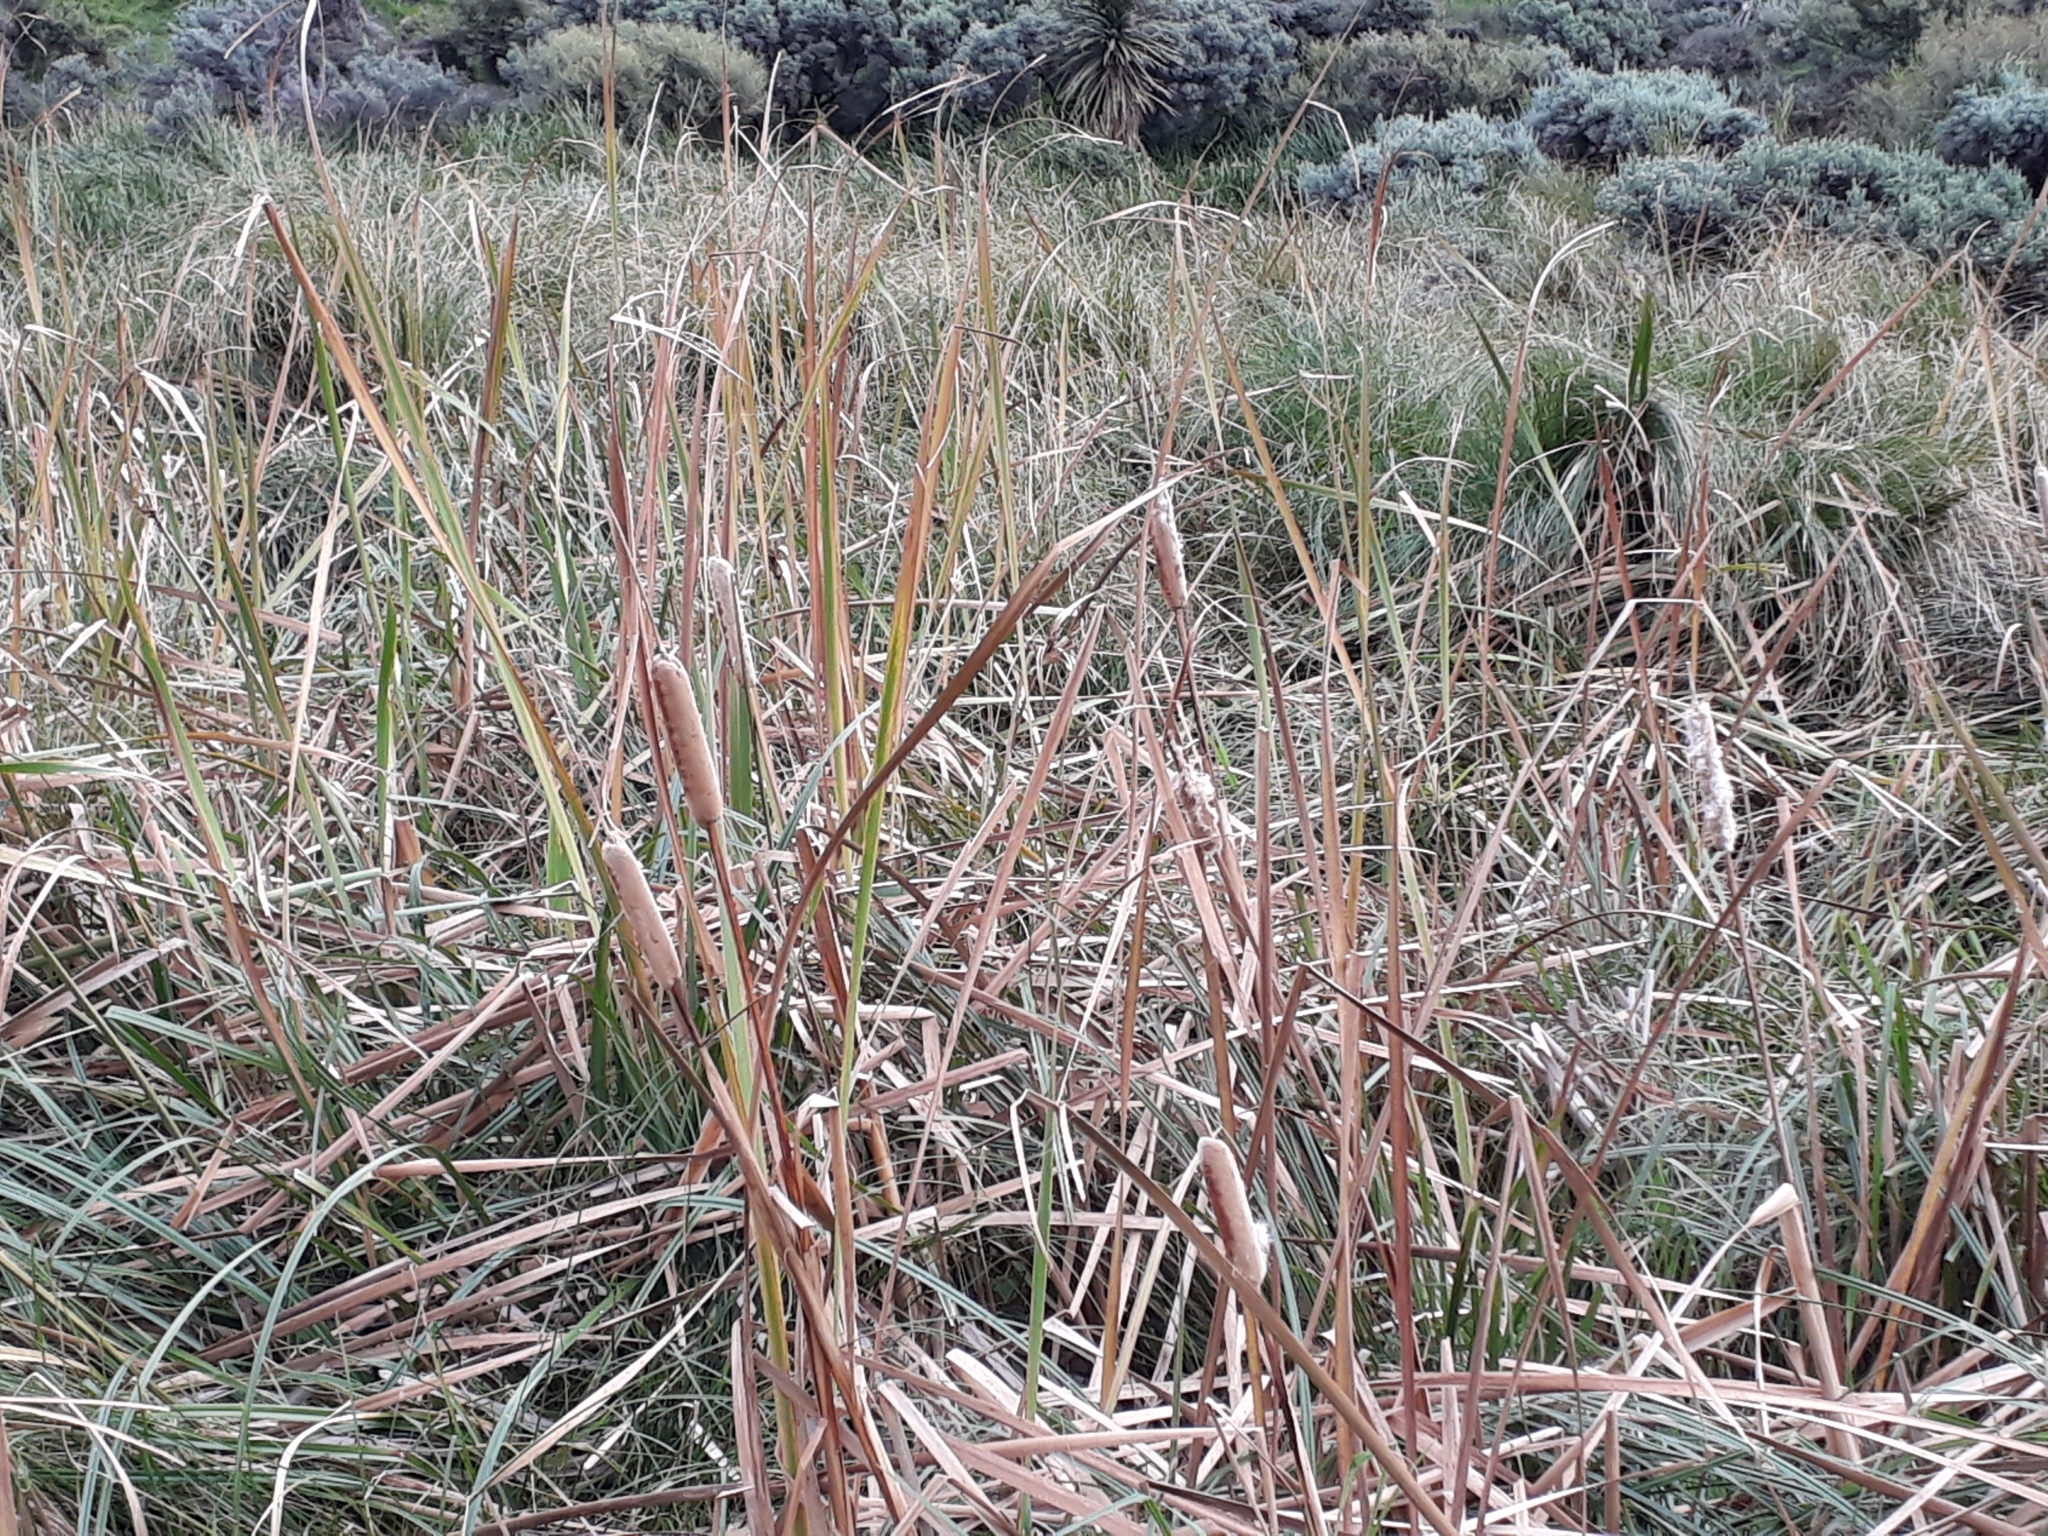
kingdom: Plantae
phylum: Tracheophyta
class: Liliopsida
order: Poales
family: Typhaceae
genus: Typha
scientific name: Typha orientalis
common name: Bullrush
